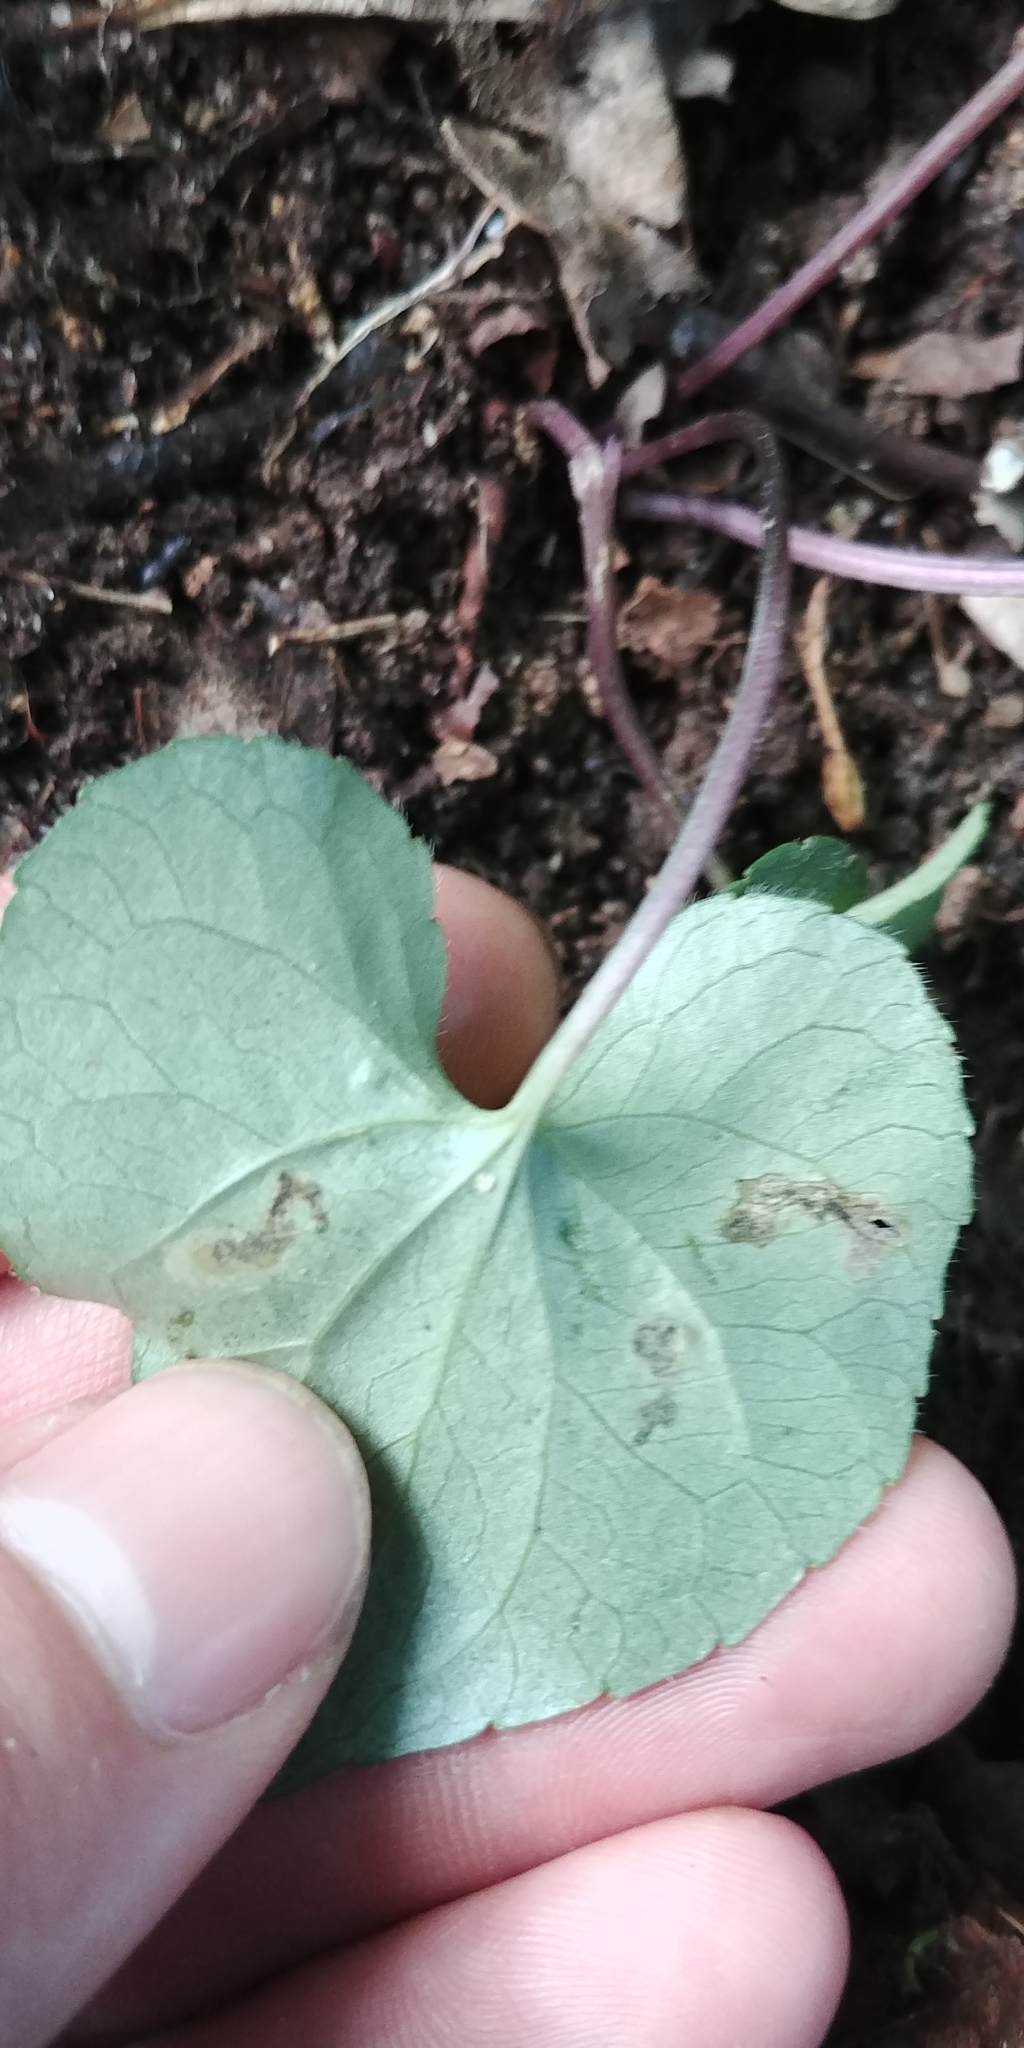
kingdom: Plantae
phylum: Tracheophyta
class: Magnoliopsida
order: Malpighiales
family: Violaceae
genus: Viola
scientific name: Viola hirsutula
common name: Southern wood violet
